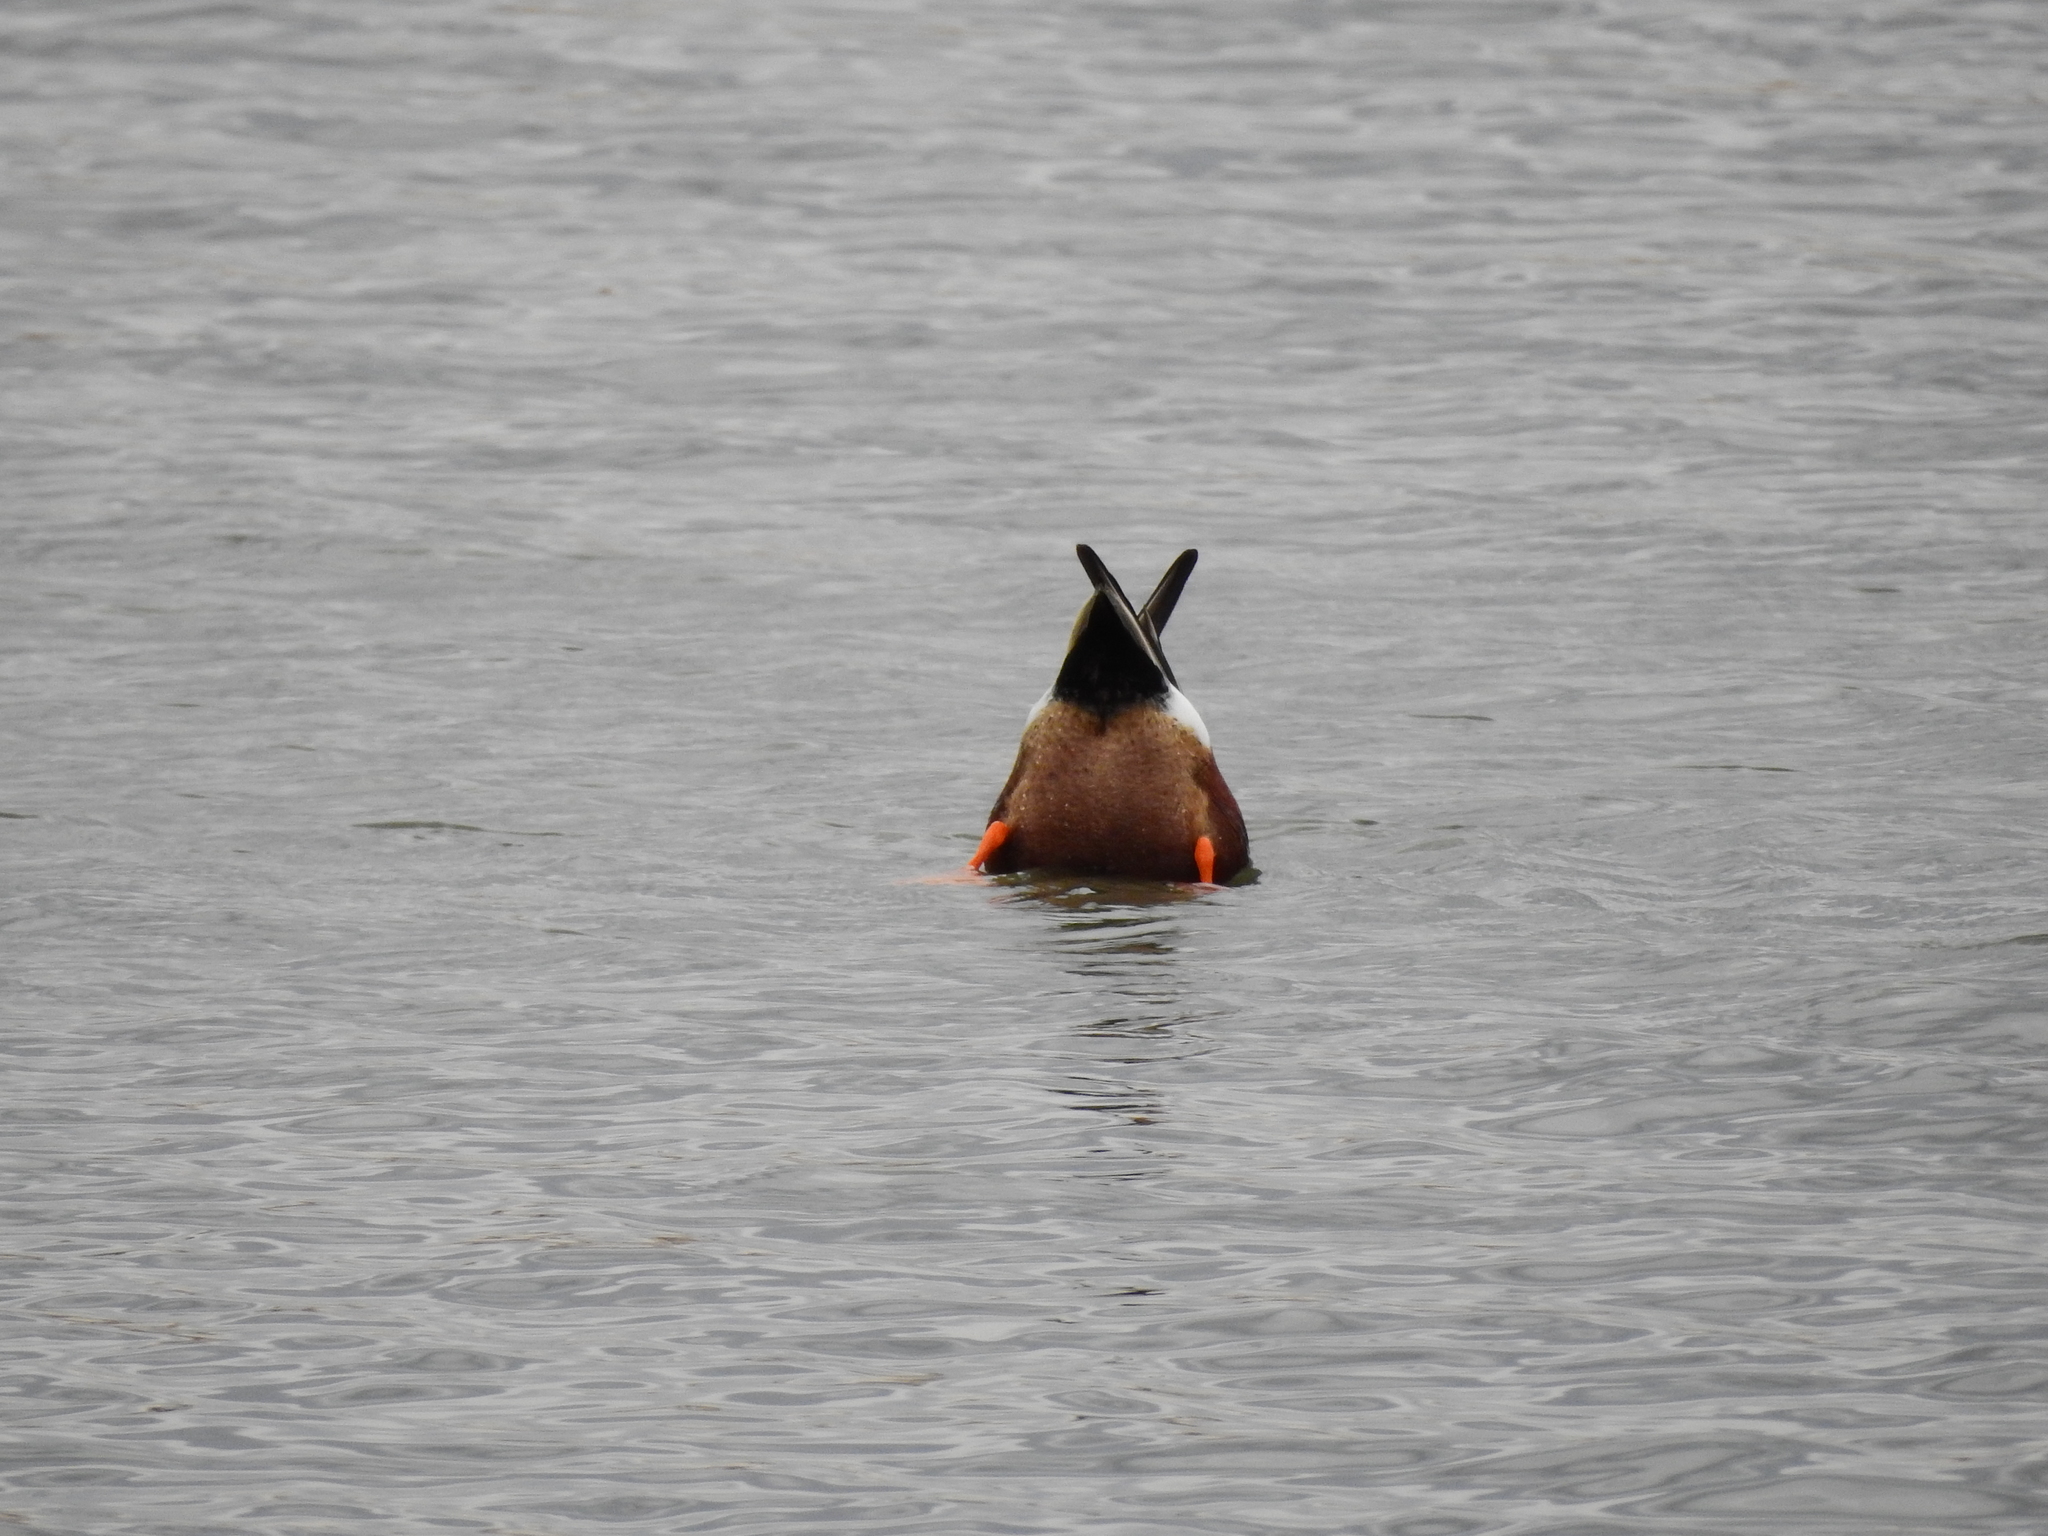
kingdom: Animalia
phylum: Chordata
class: Aves
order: Anseriformes
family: Anatidae
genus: Anas
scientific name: Anas platyrhynchos
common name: Mallard
